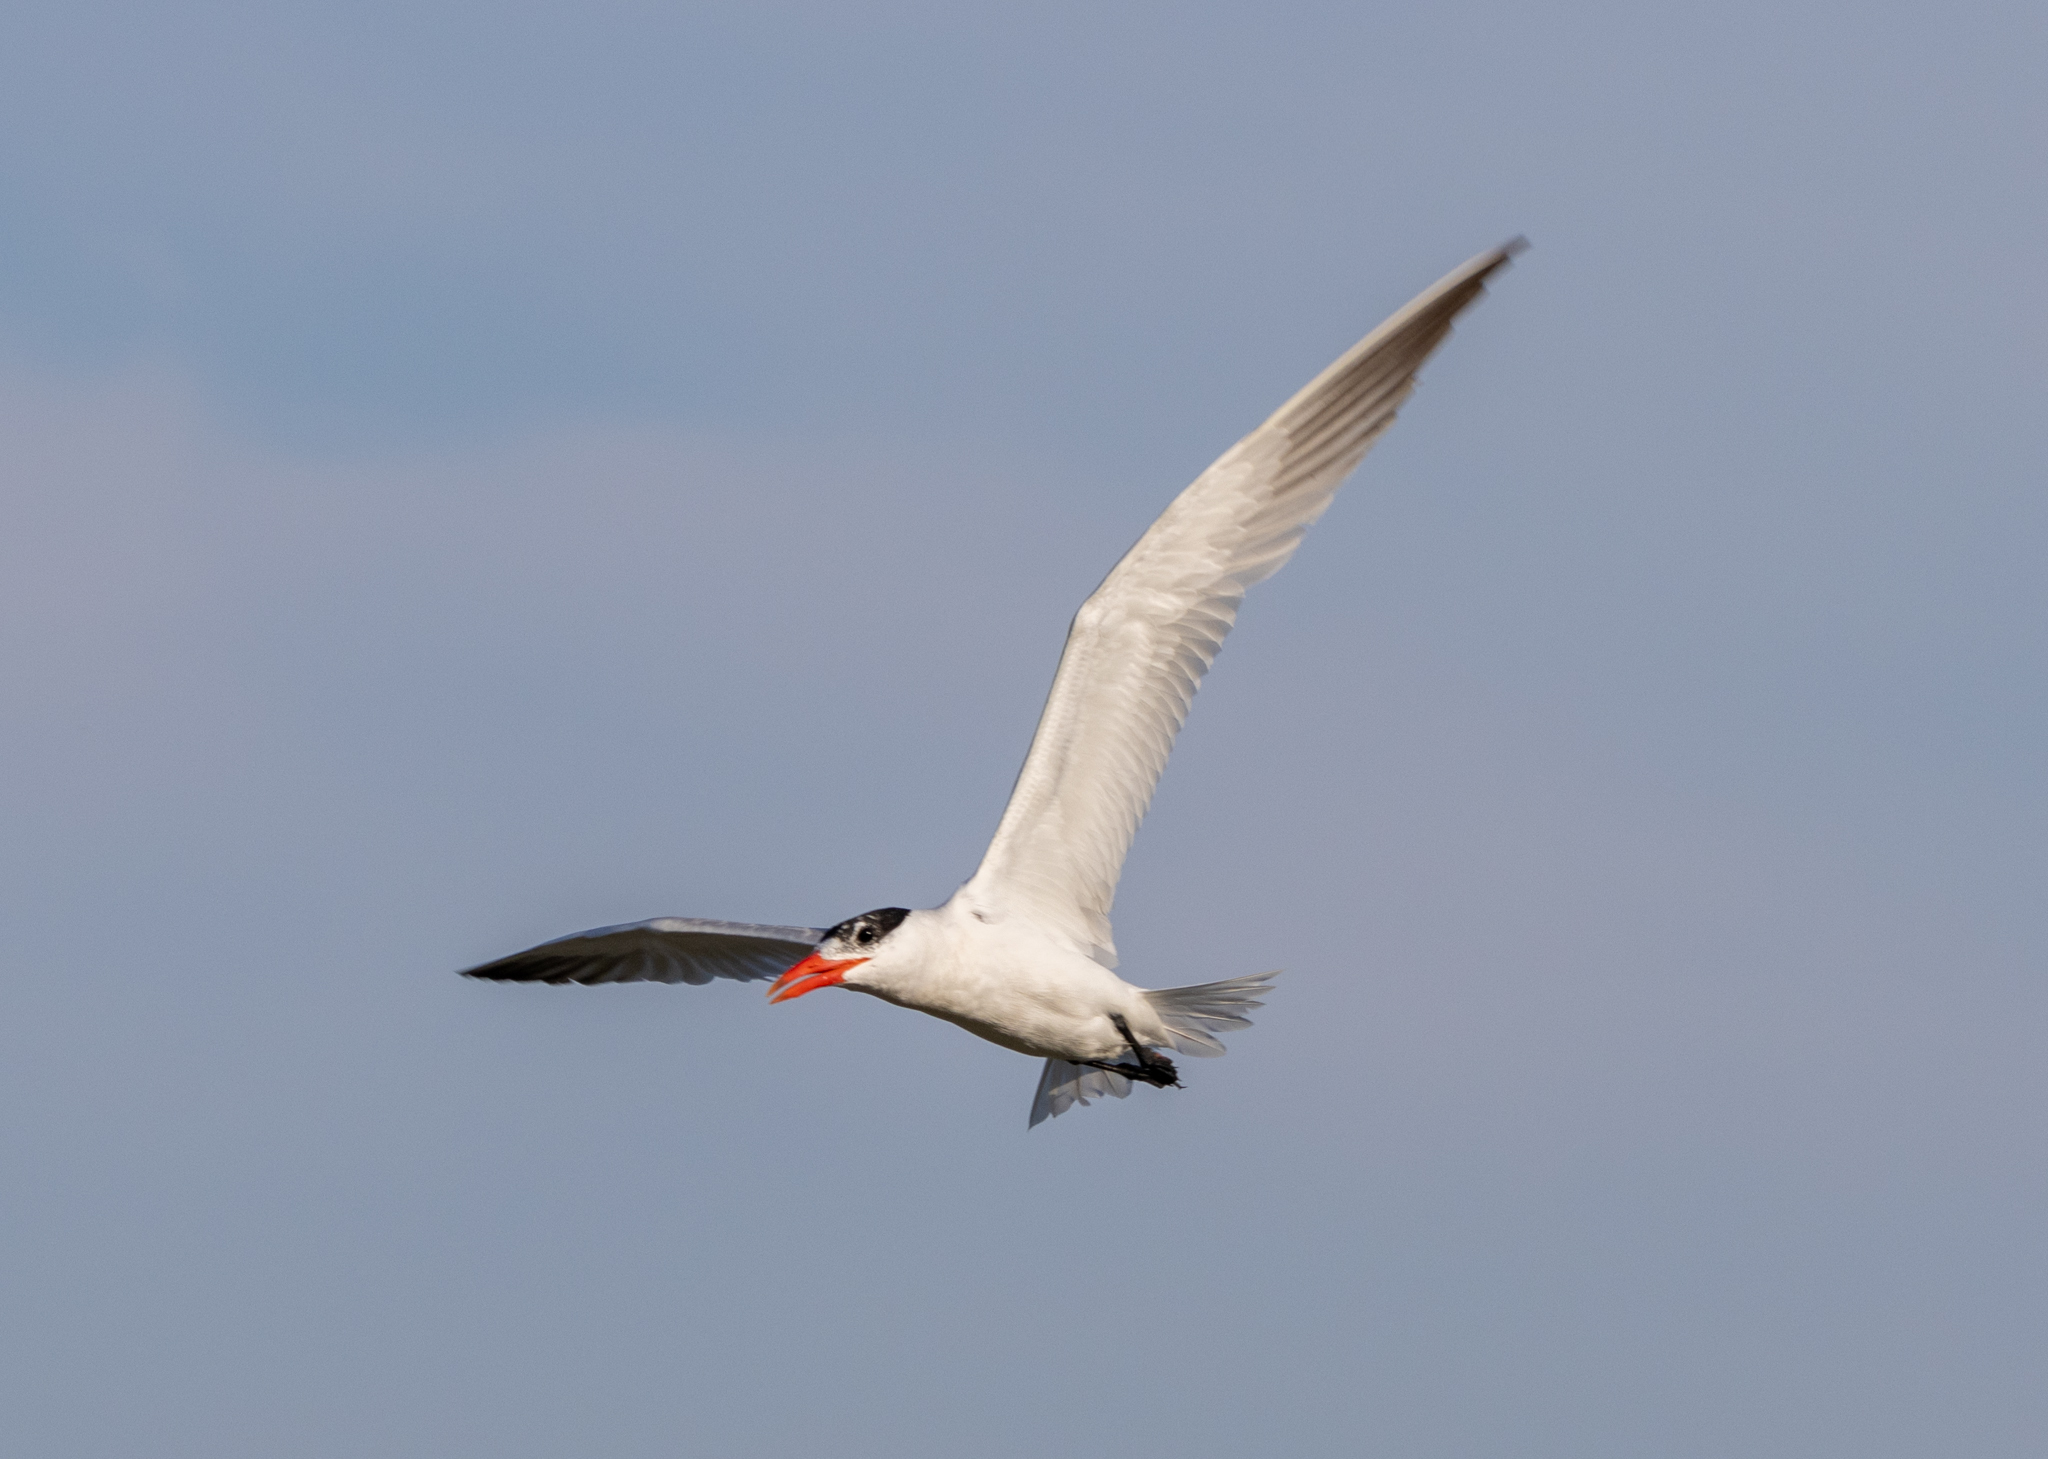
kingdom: Animalia
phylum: Chordata
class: Aves
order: Charadriiformes
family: Laridae
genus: Hydroprogne
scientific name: Hydroprogne caspia
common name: Caspian tern
